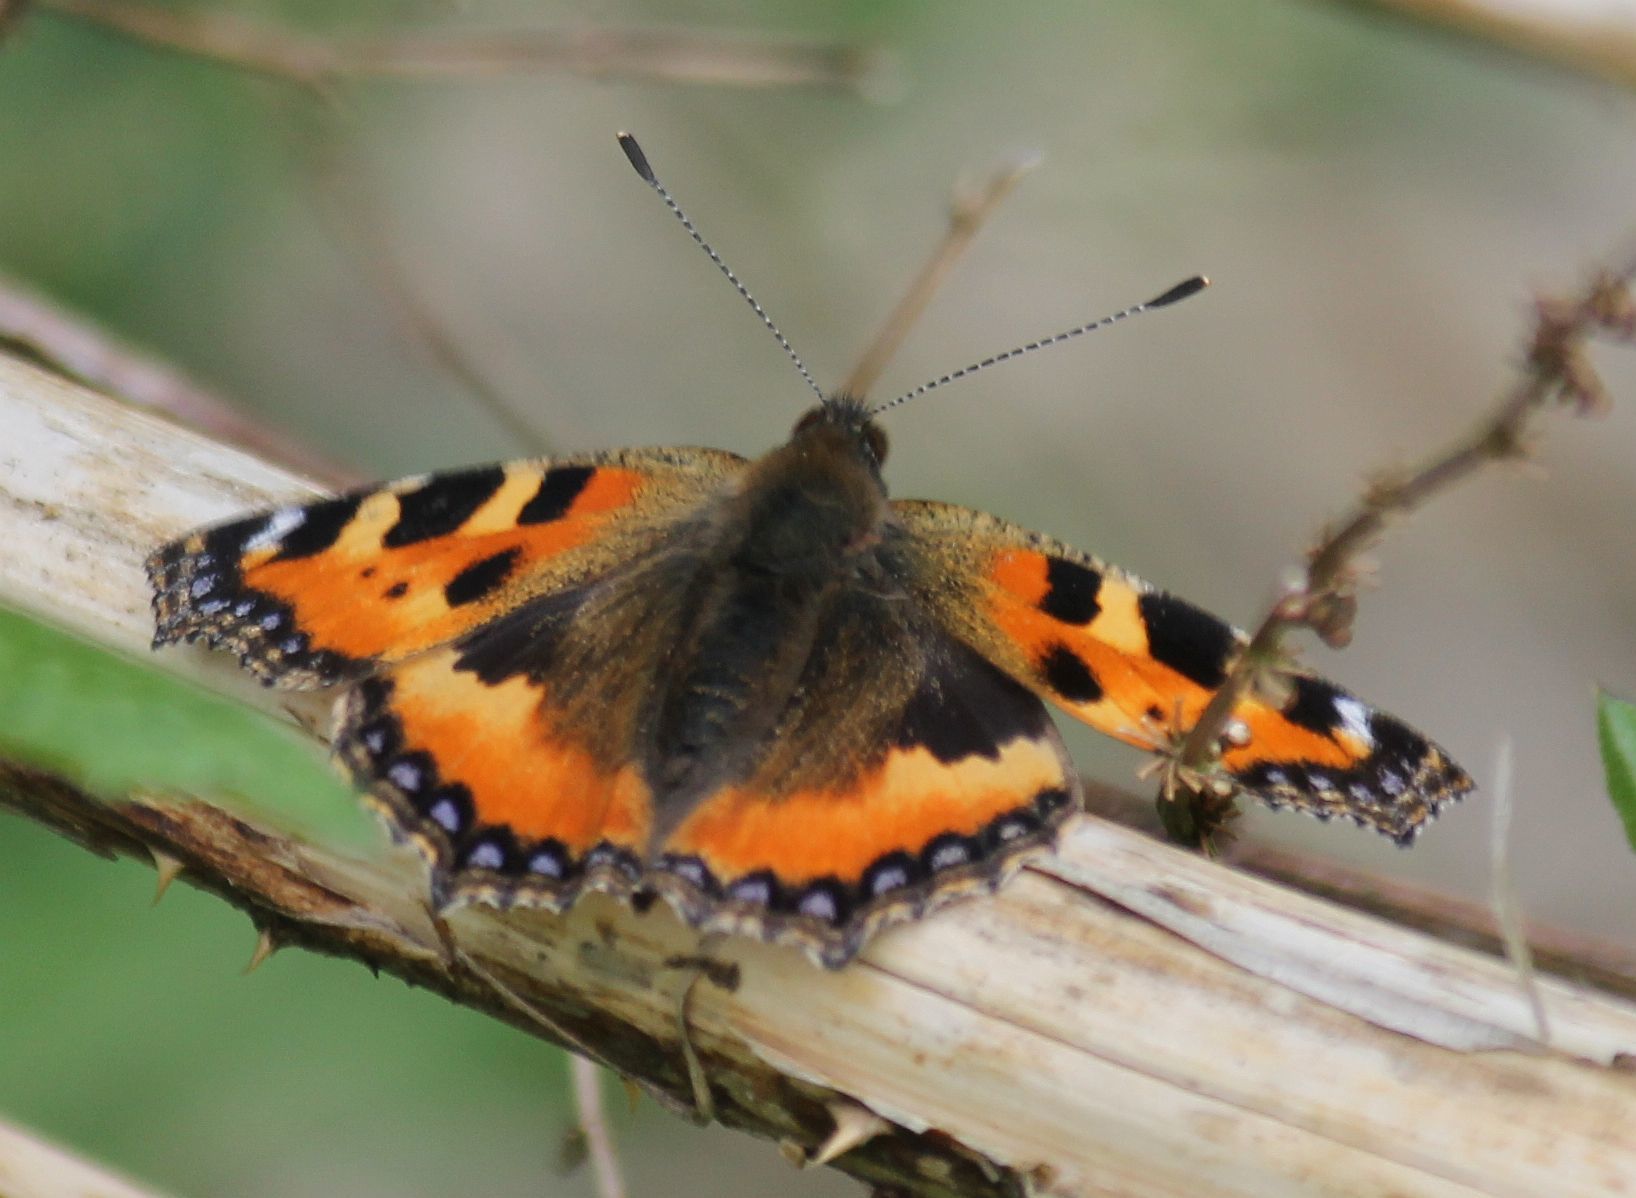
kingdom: Animalia
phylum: Arthropoda
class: Insecta
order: Lepidoptera
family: Nymphalidae
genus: Aglais
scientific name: Aglais urticae
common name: Small tortoiseshell
